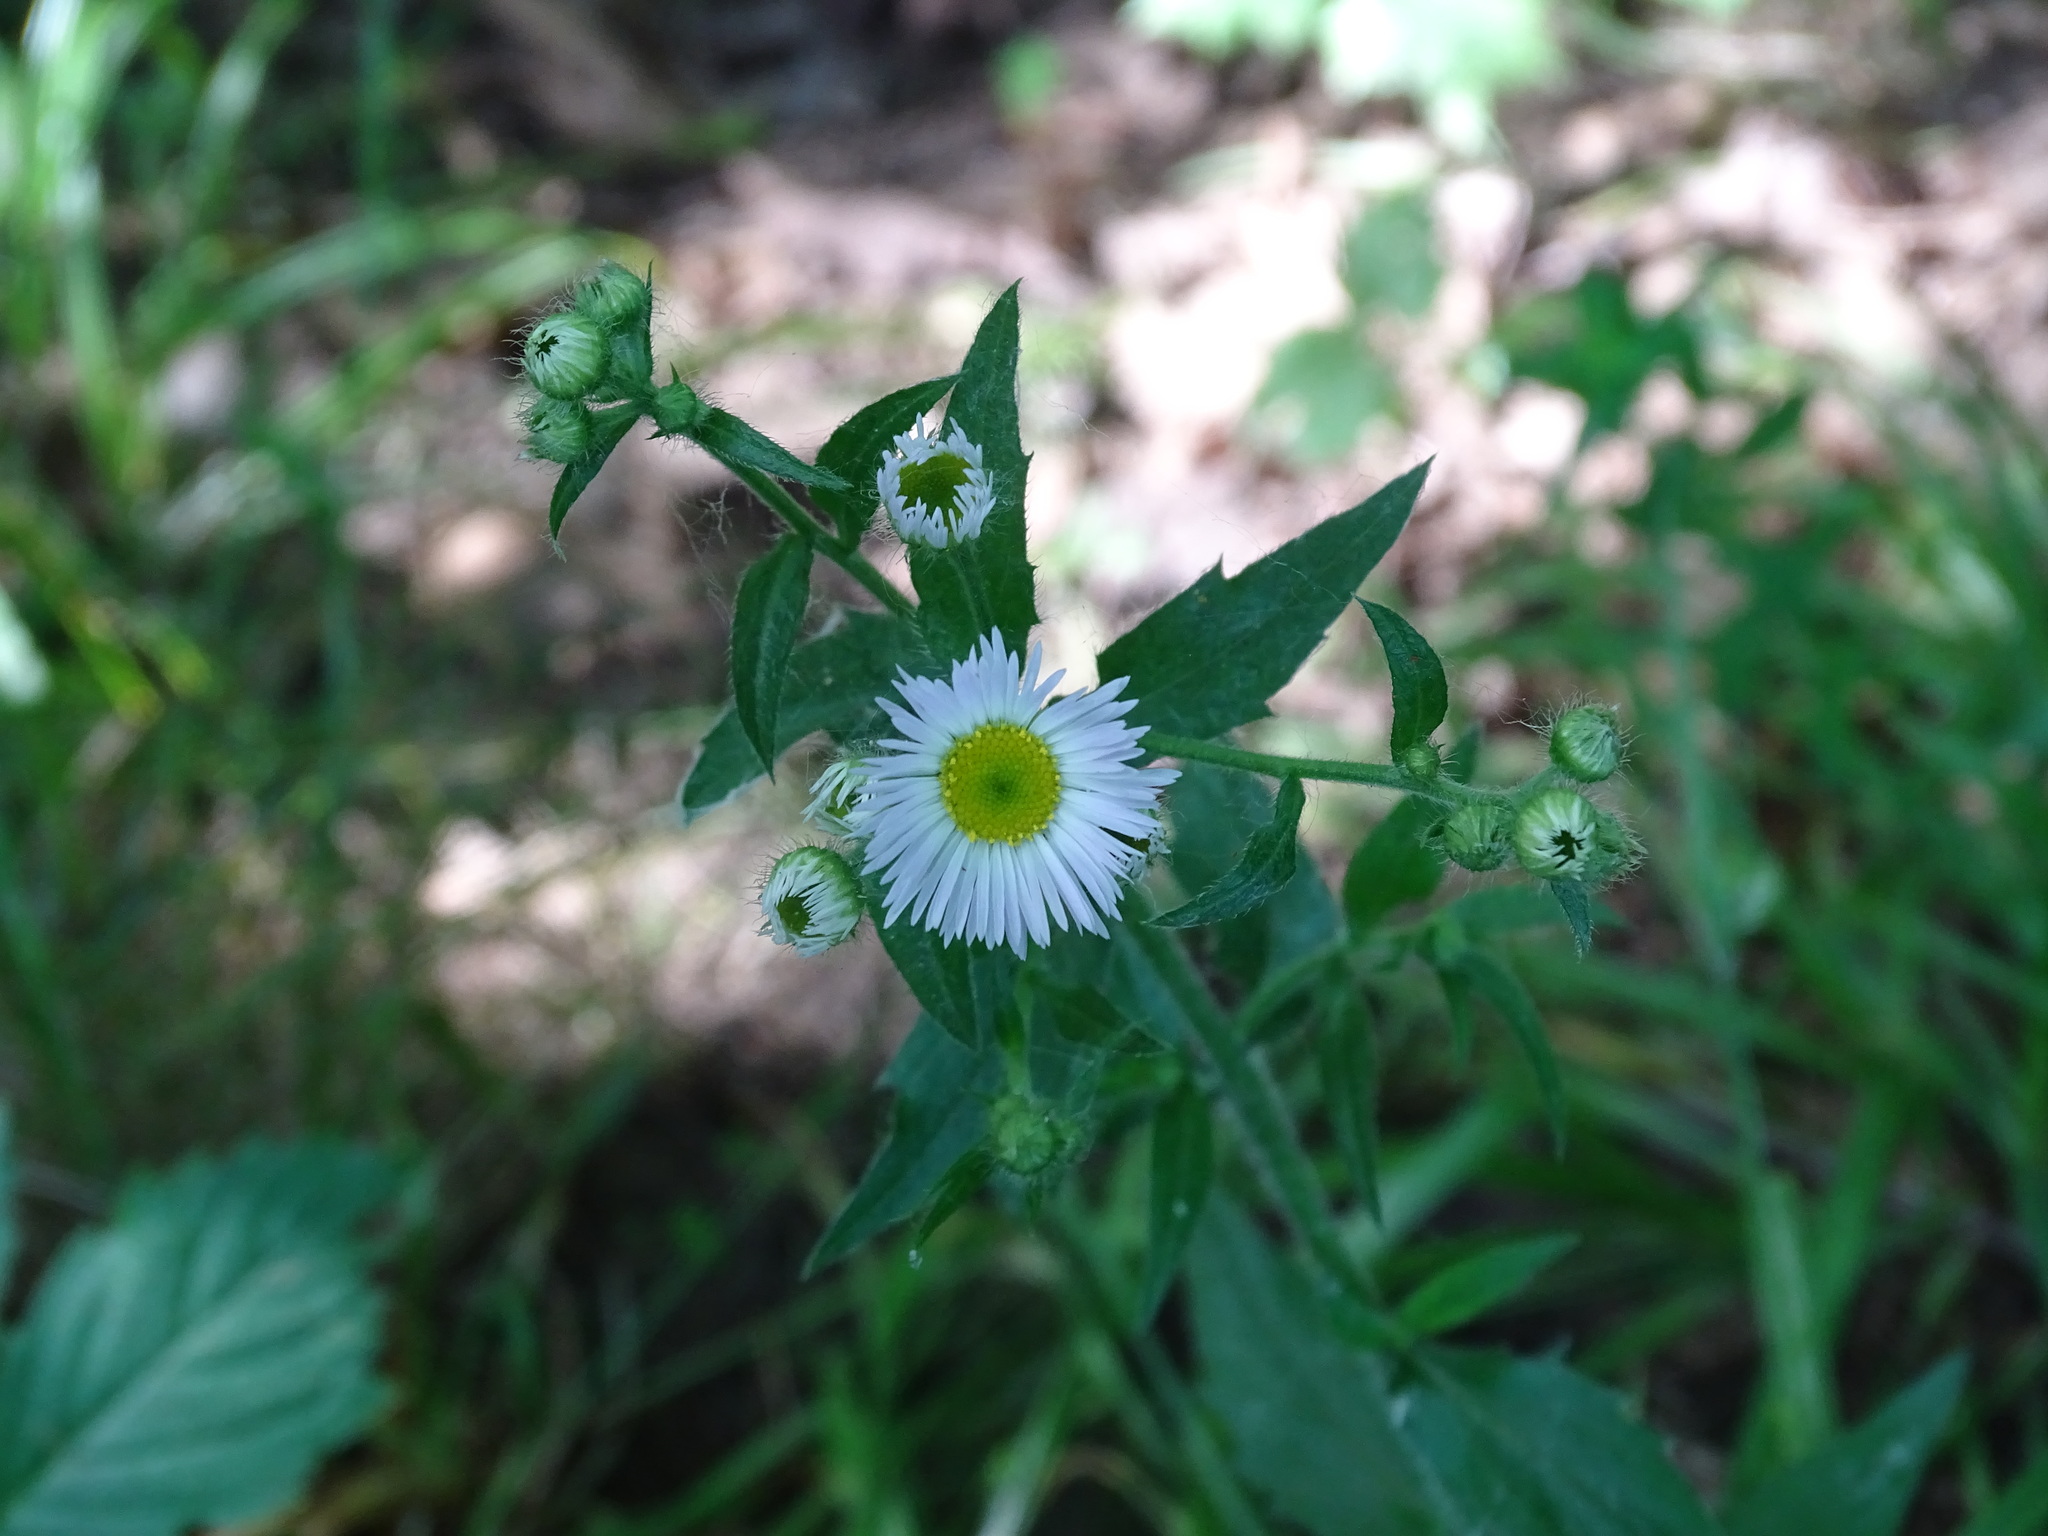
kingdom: Plantae
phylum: Tracheophyta
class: Magnoliopsida
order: Asterales
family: Asteraceae
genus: Erigeron
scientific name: Erigeron annuus
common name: Tall fleabane
